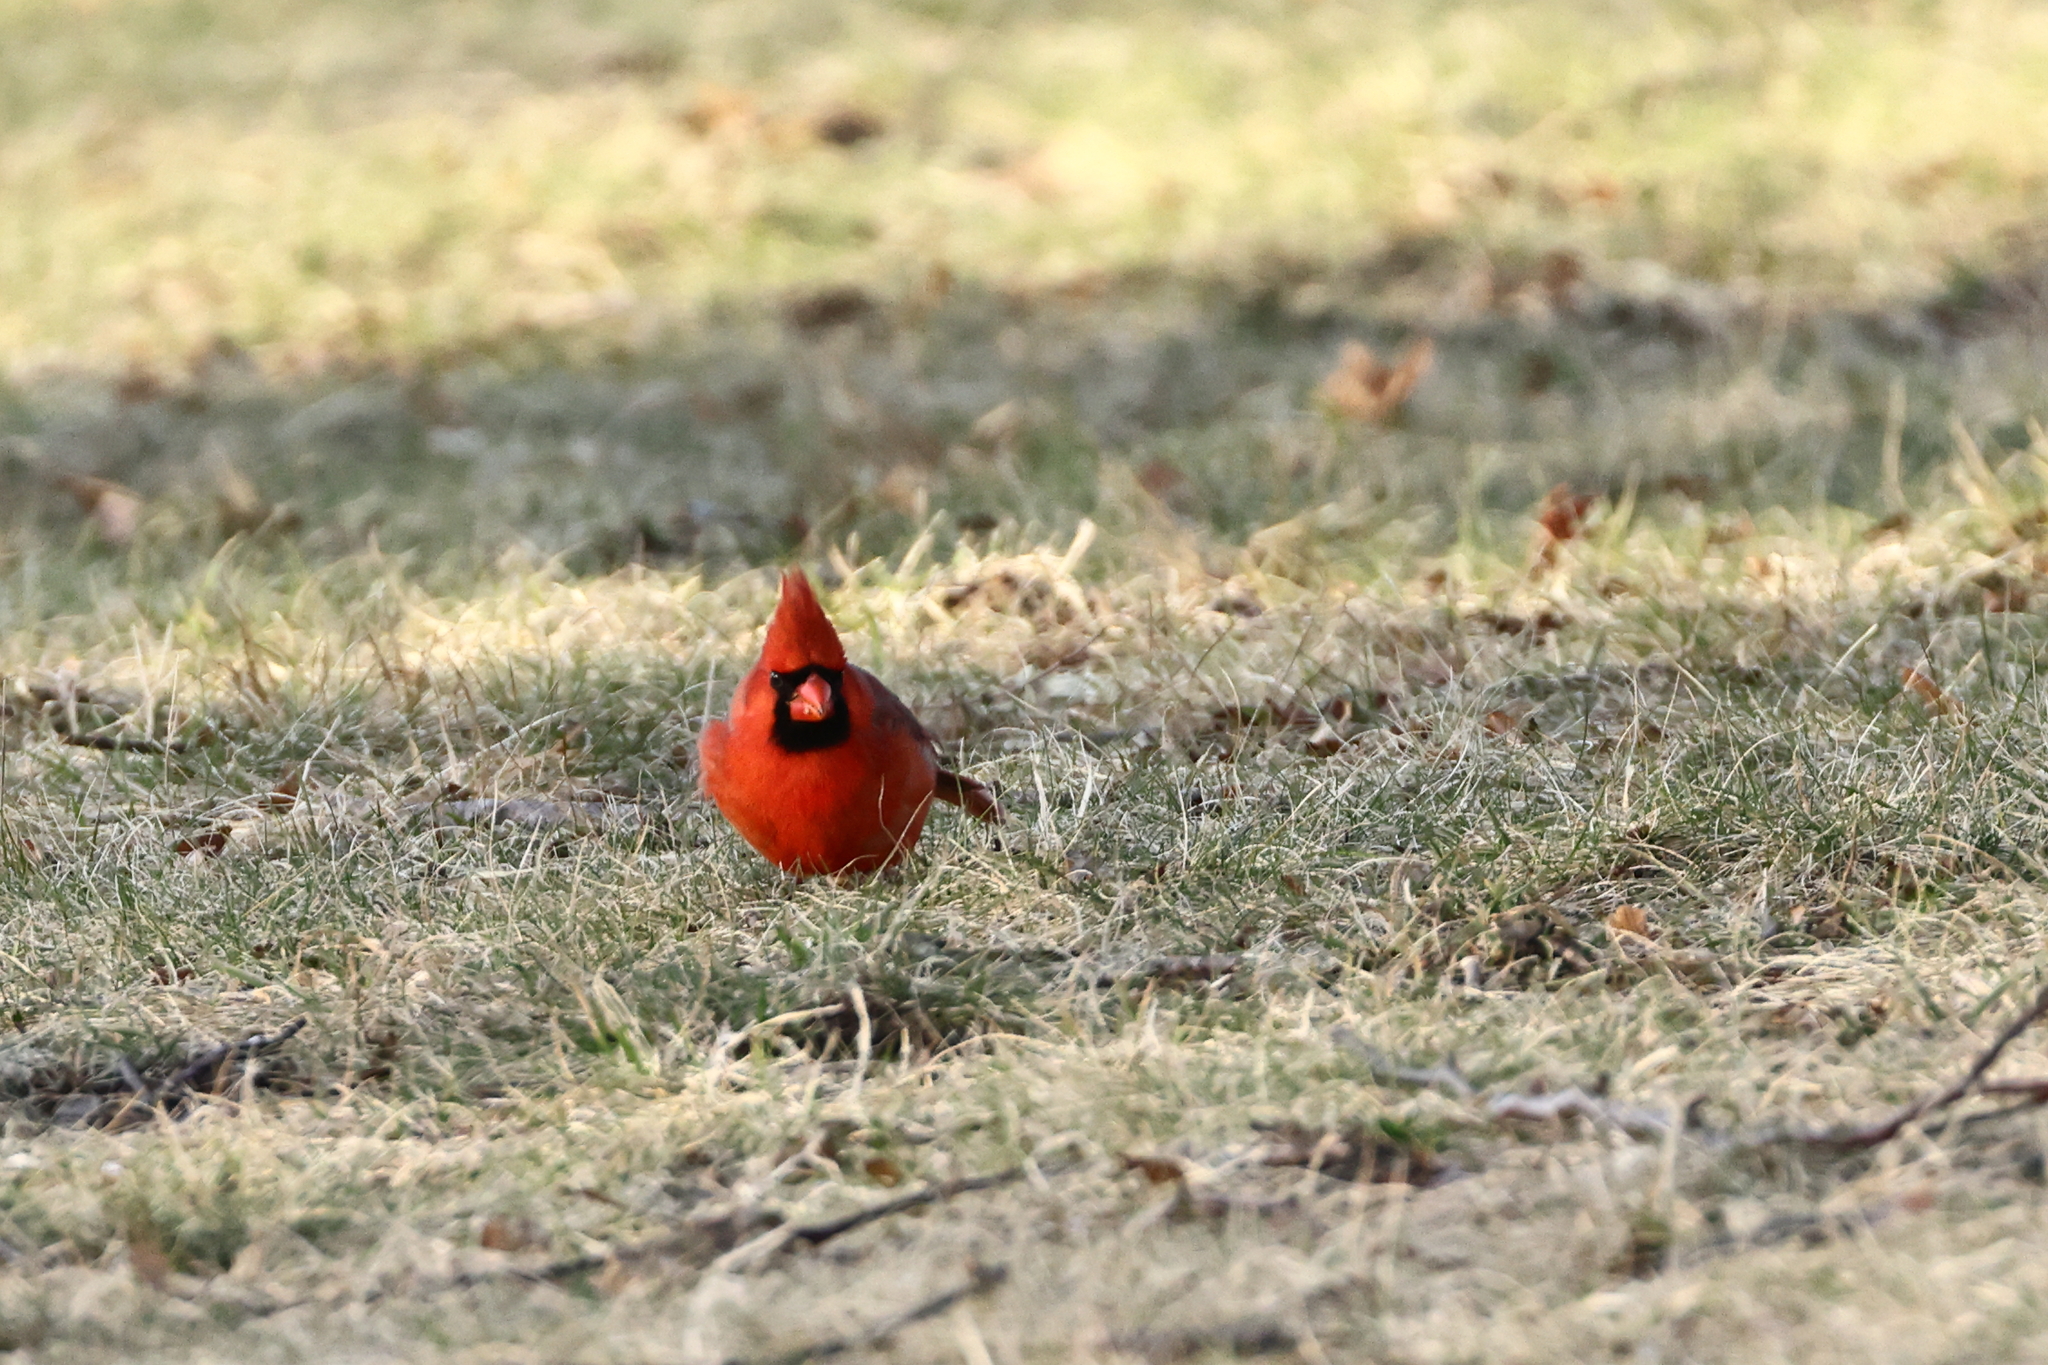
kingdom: Animalia
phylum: Chordata
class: Aves
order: Passeriformes
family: Cardinalidae
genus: Cardinalis
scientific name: Cardinalis cardinalis
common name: Northern cardinal
